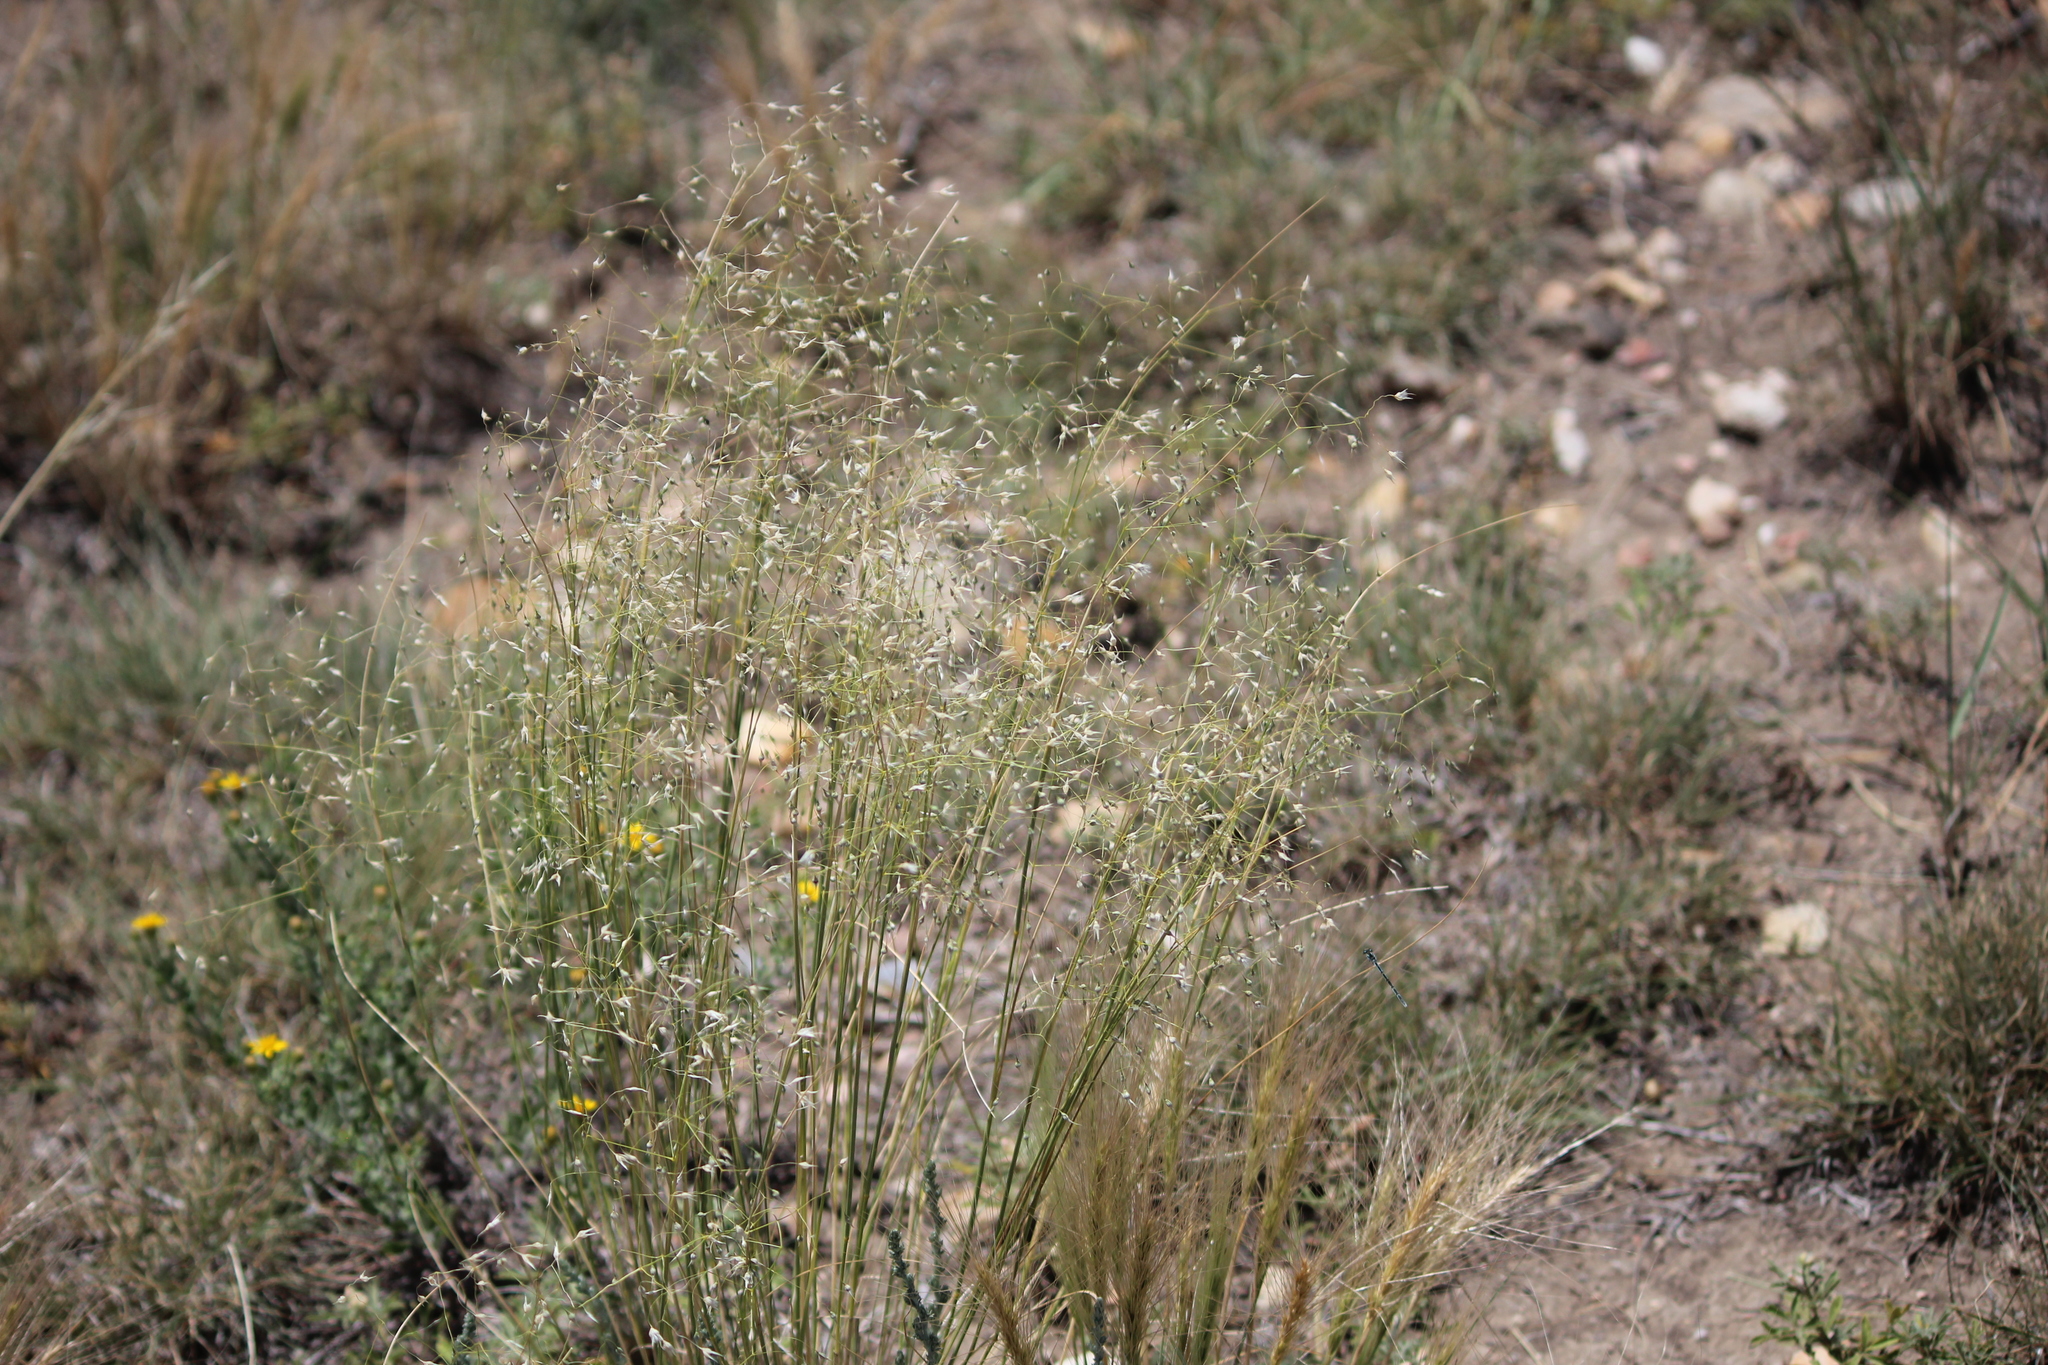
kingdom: Plantae
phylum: Tracheophyta
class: Liliopsida
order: Poales
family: Poaceae
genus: Eriocoma
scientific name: Eriocoma hymenoides
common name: Indian mountain ricegrass
